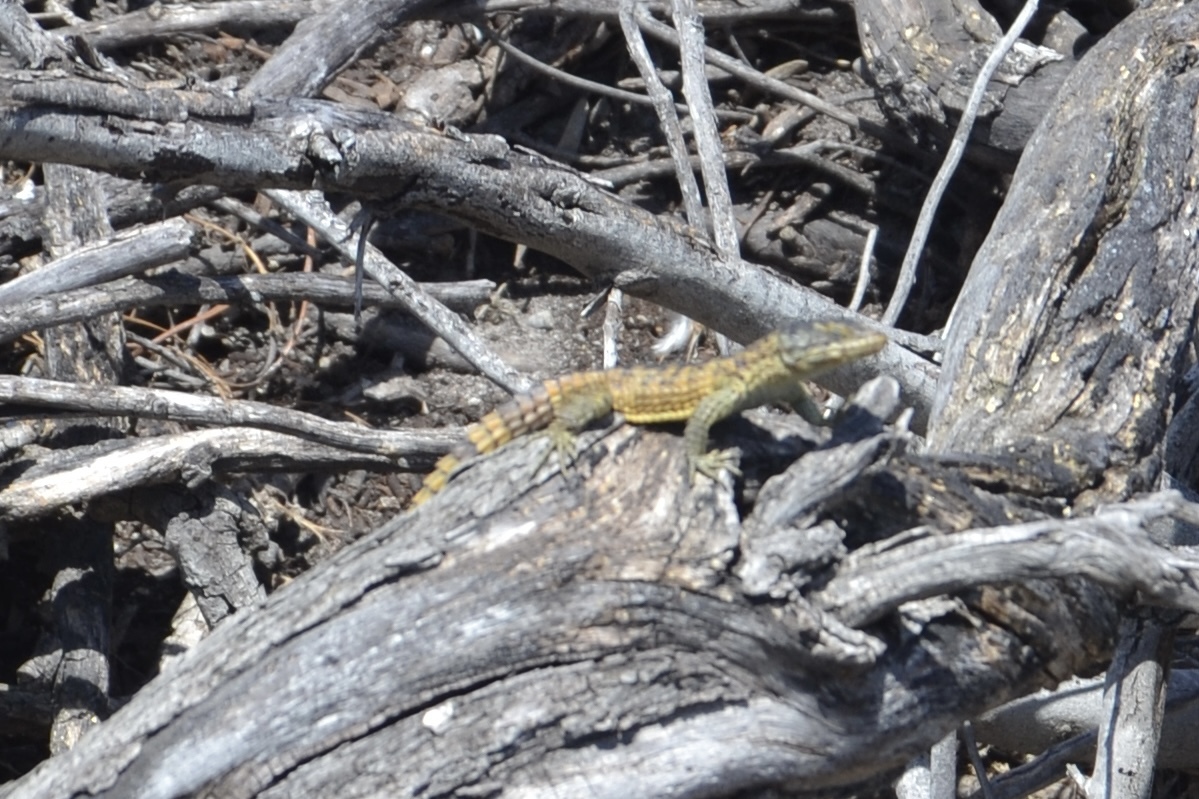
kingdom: Animalia
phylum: Chordata
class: Squamata
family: Cordylidae
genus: Cordylus
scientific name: Cordylus cordylus
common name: Cape girdled lizard
